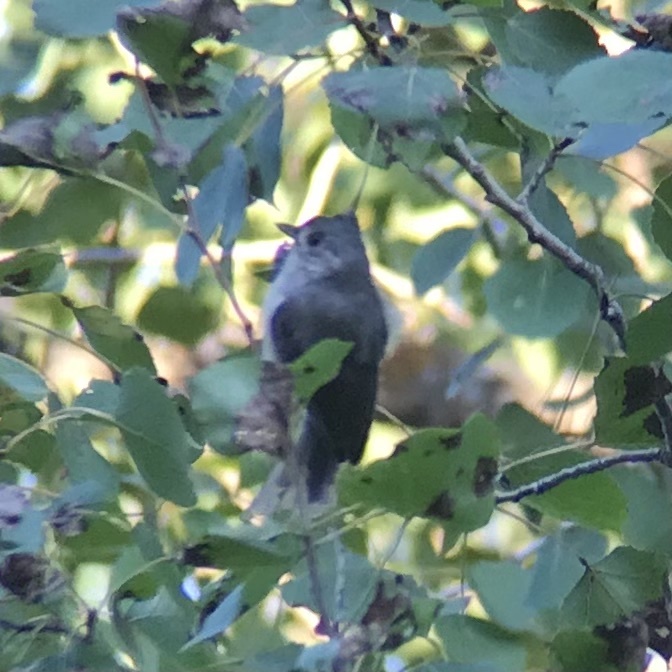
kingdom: Animalia
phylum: Chordata
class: Aves
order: Passeriformes
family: Paridae
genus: Baeolophus
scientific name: Baeolophus bicolor
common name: Tufted titmouse
